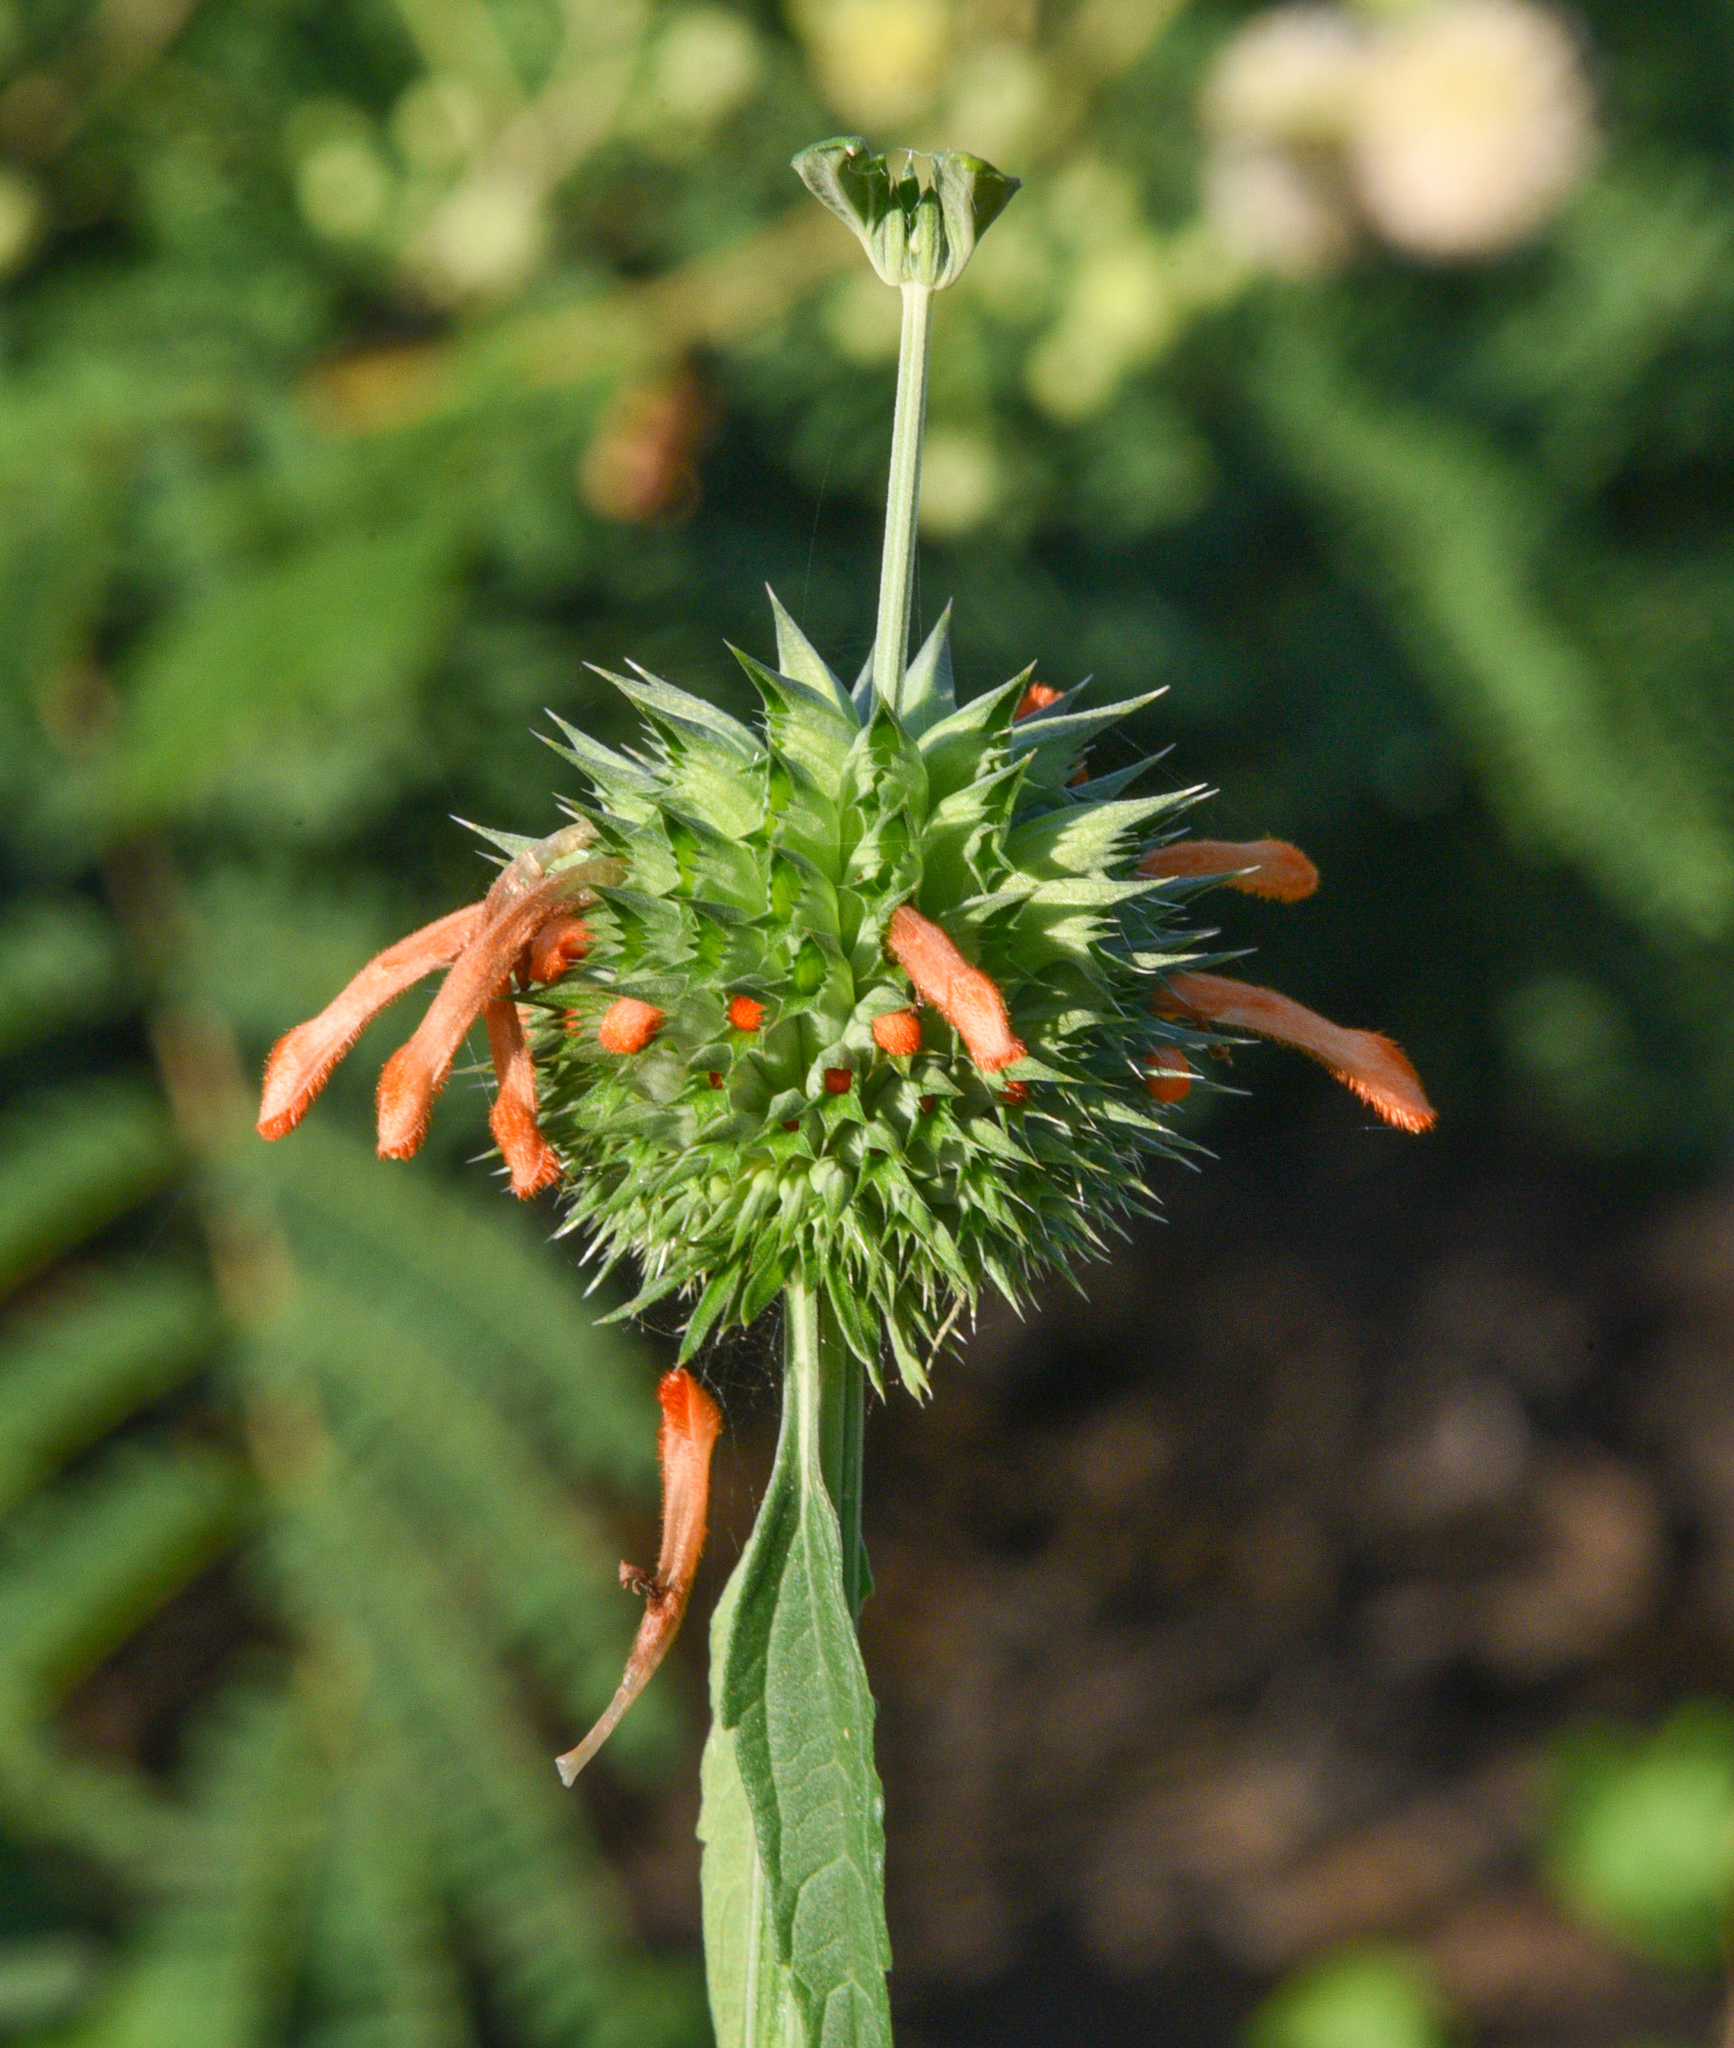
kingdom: Plantae
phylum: Tracheophyta
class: Magnoliopsida
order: Lamiales
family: Lamiaceae
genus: Leonotis
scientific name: Leonotis nepetifolia
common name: Christmas candlestick
